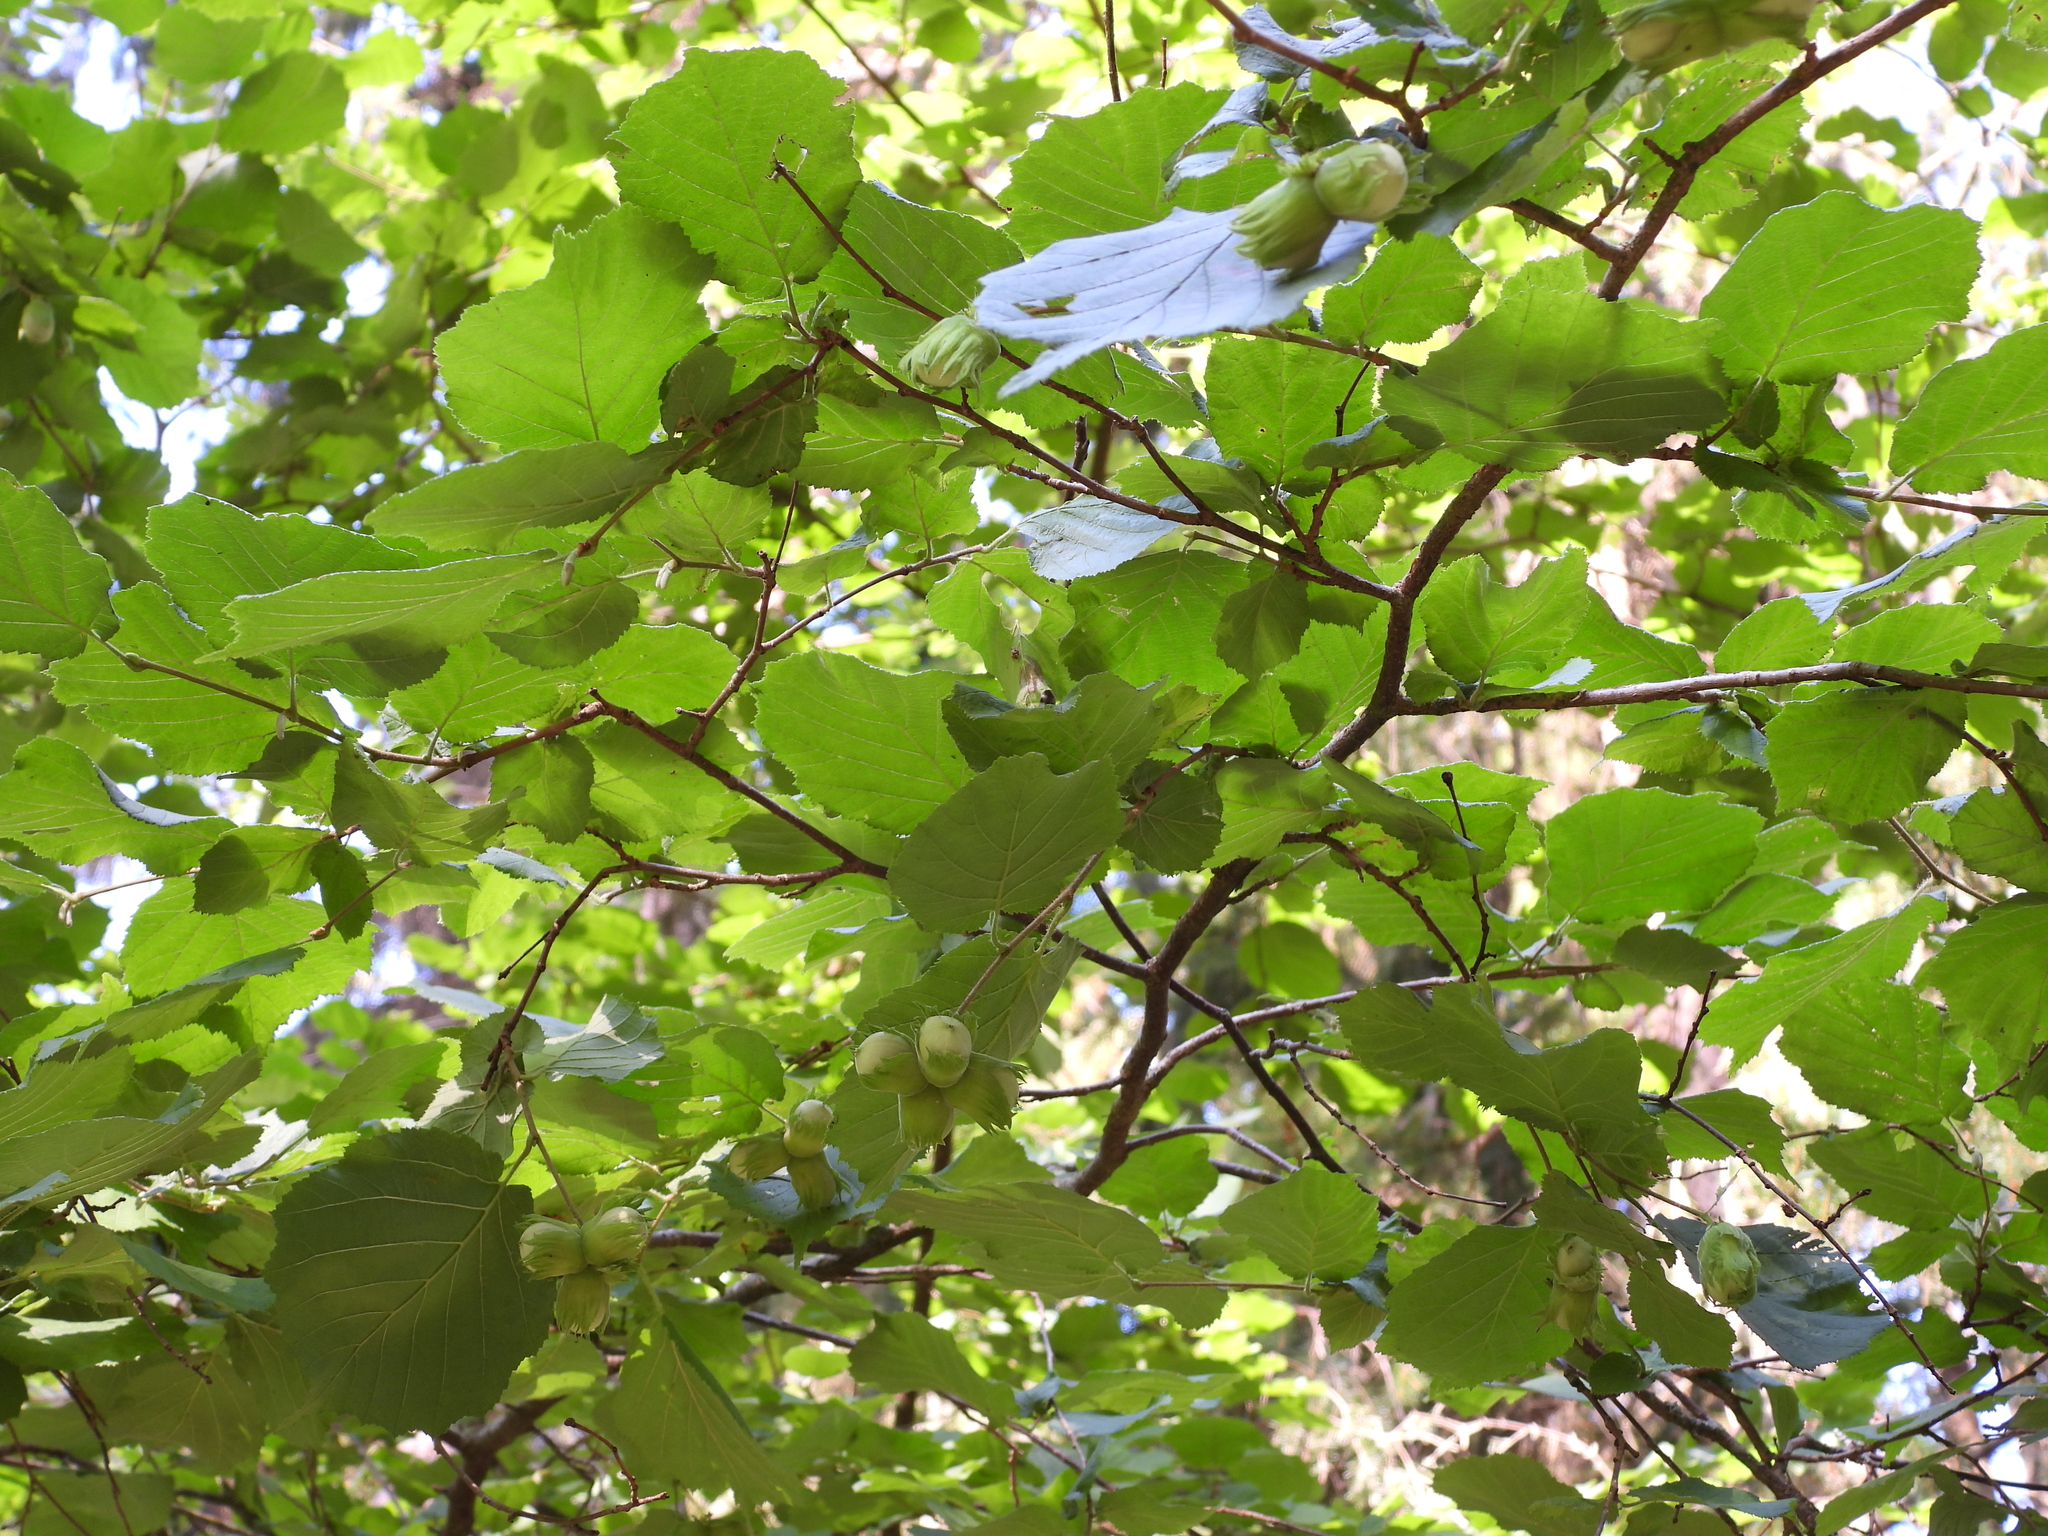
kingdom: Plantae
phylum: Tracheophyta
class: Magnoliopsida
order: Fagales
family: Betulaceae
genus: Corylus
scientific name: Corylus avellana
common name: European hazel
